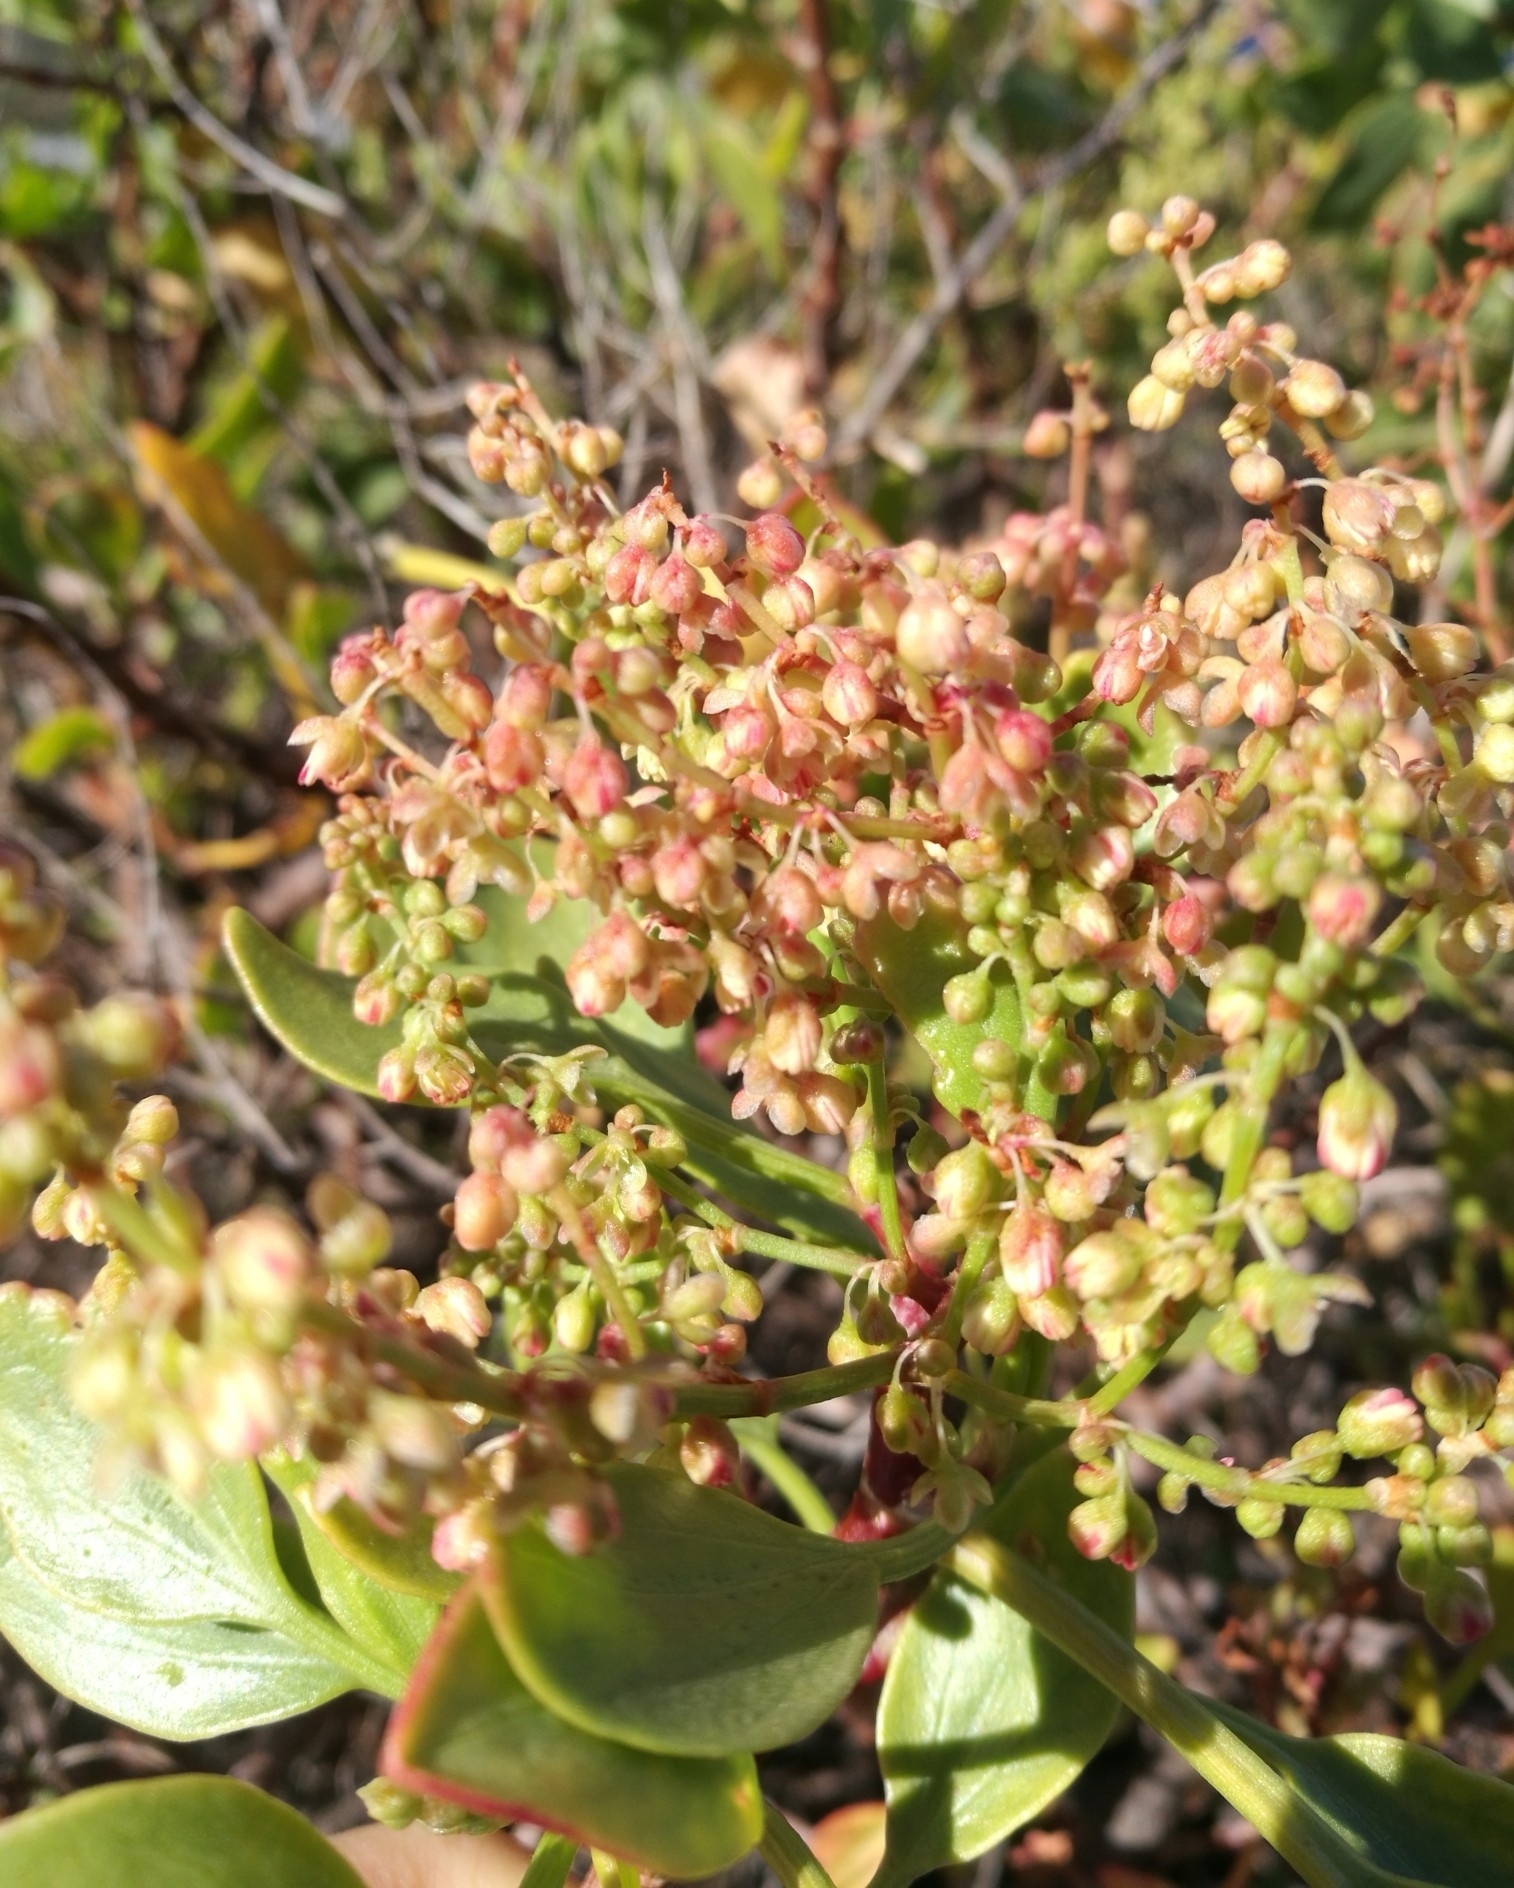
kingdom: Plantae
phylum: Tracheophyta
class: Magnoliopsida
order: Caryophyllales
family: Polygonaceae
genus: Rumex
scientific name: Rumex lunaria
